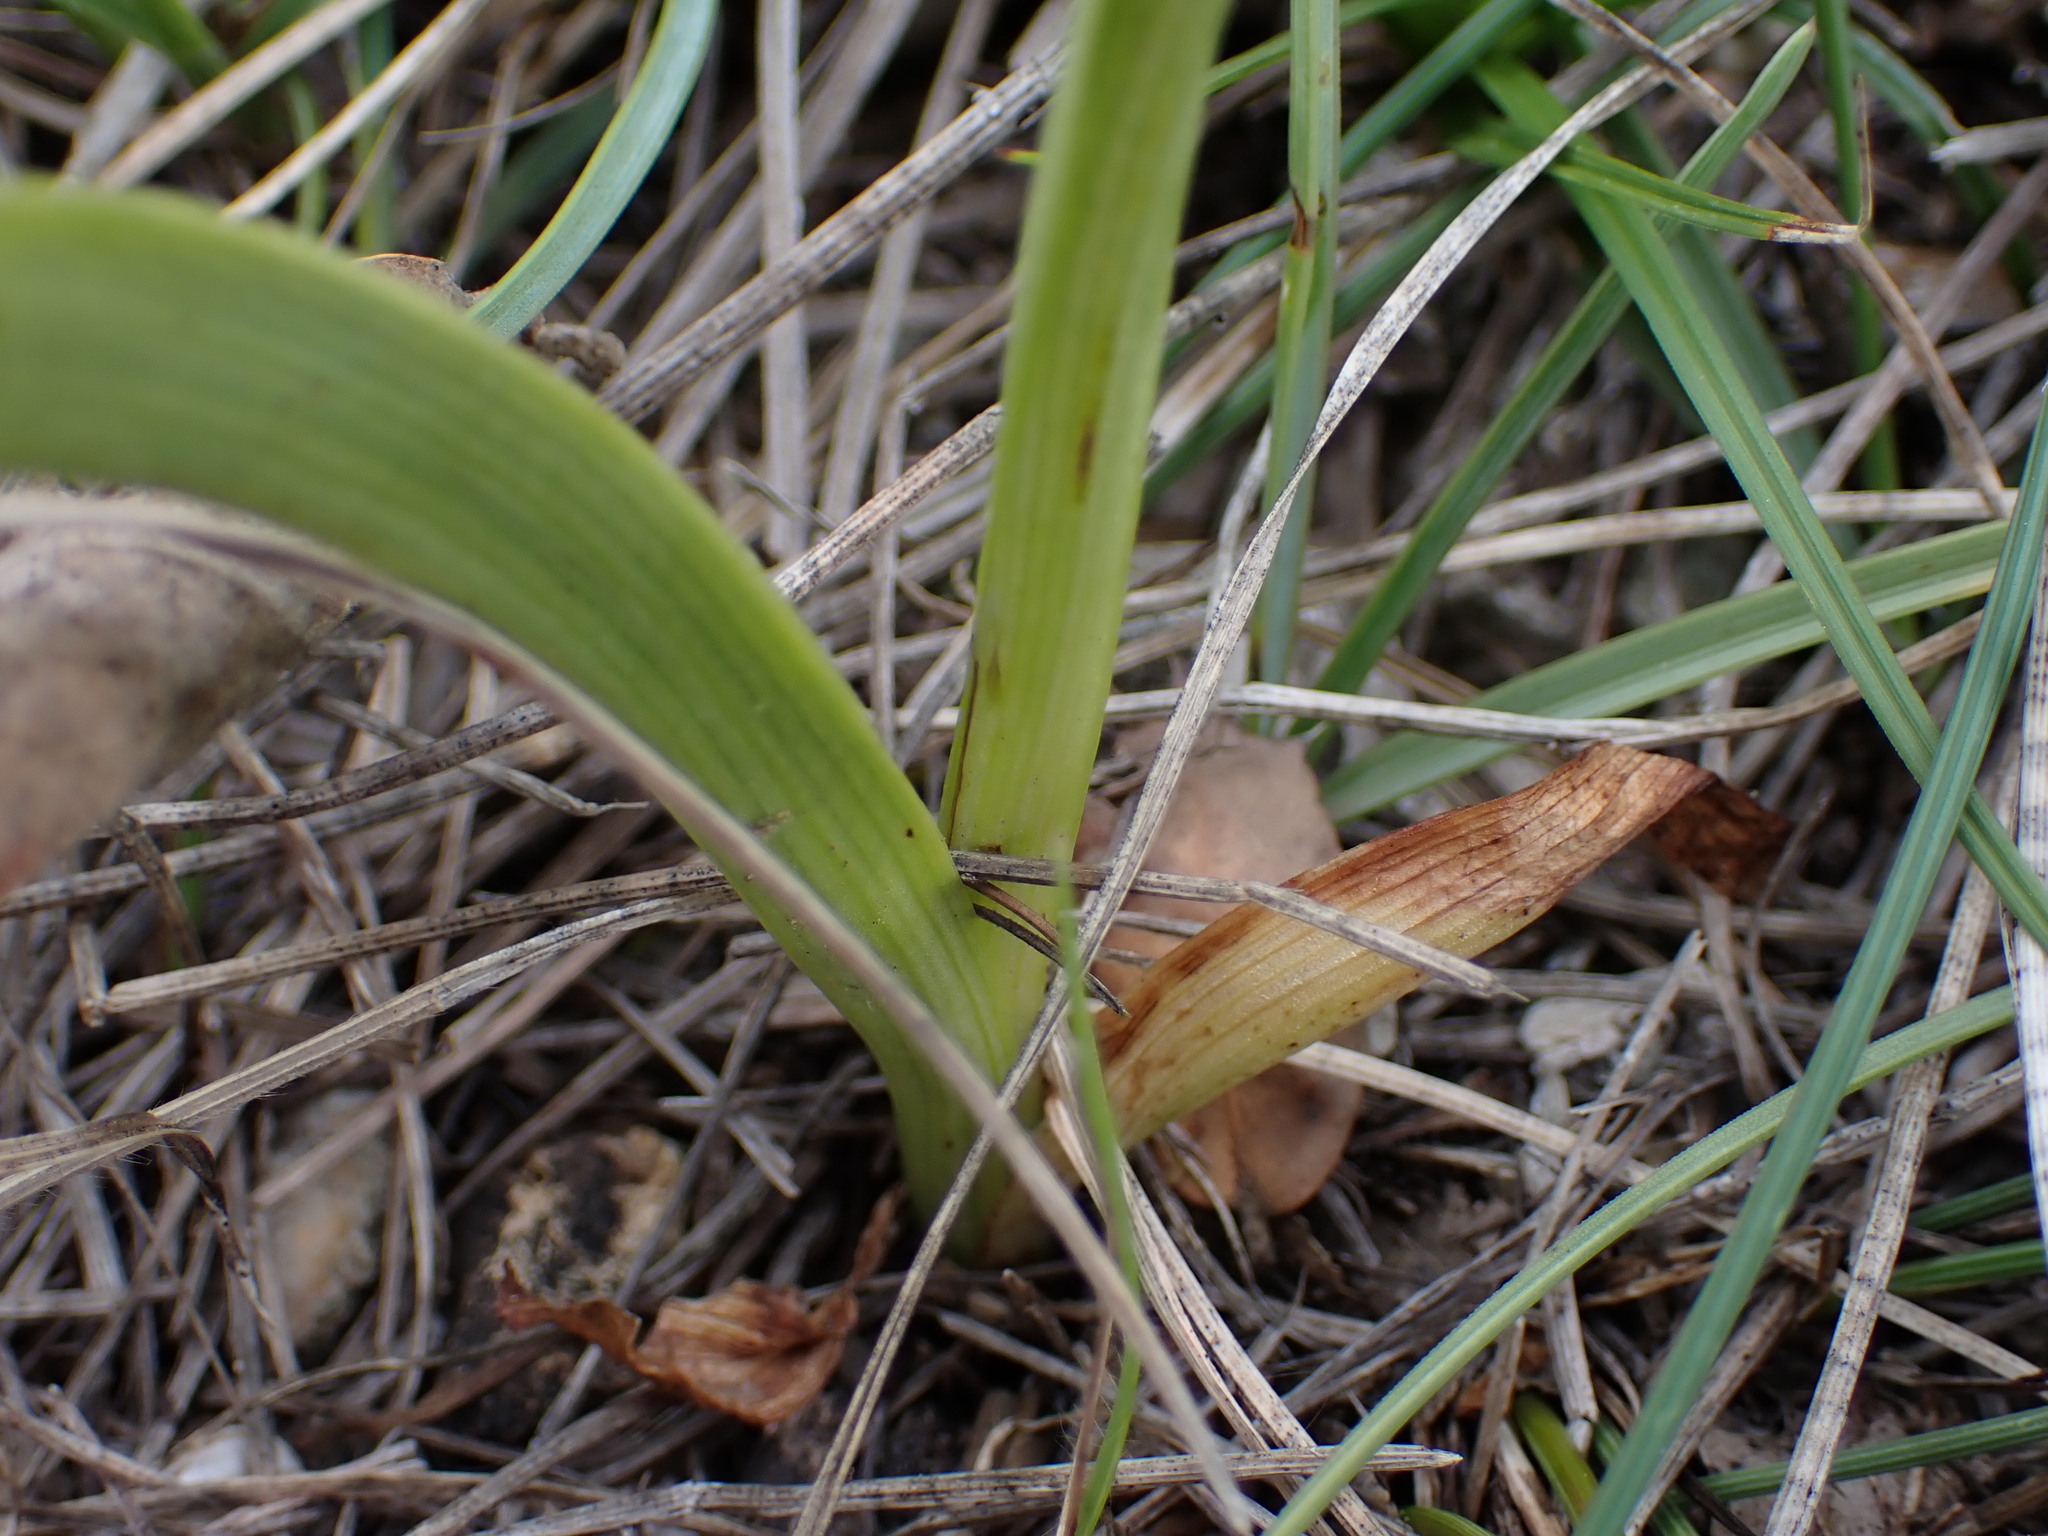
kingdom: Plantae
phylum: Tracheophyta
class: Liliopsida
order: Asparagales
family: Orchidaceae
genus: Anacamptis
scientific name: Anacamptis pyramidalis
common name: Pyramidal orchid
